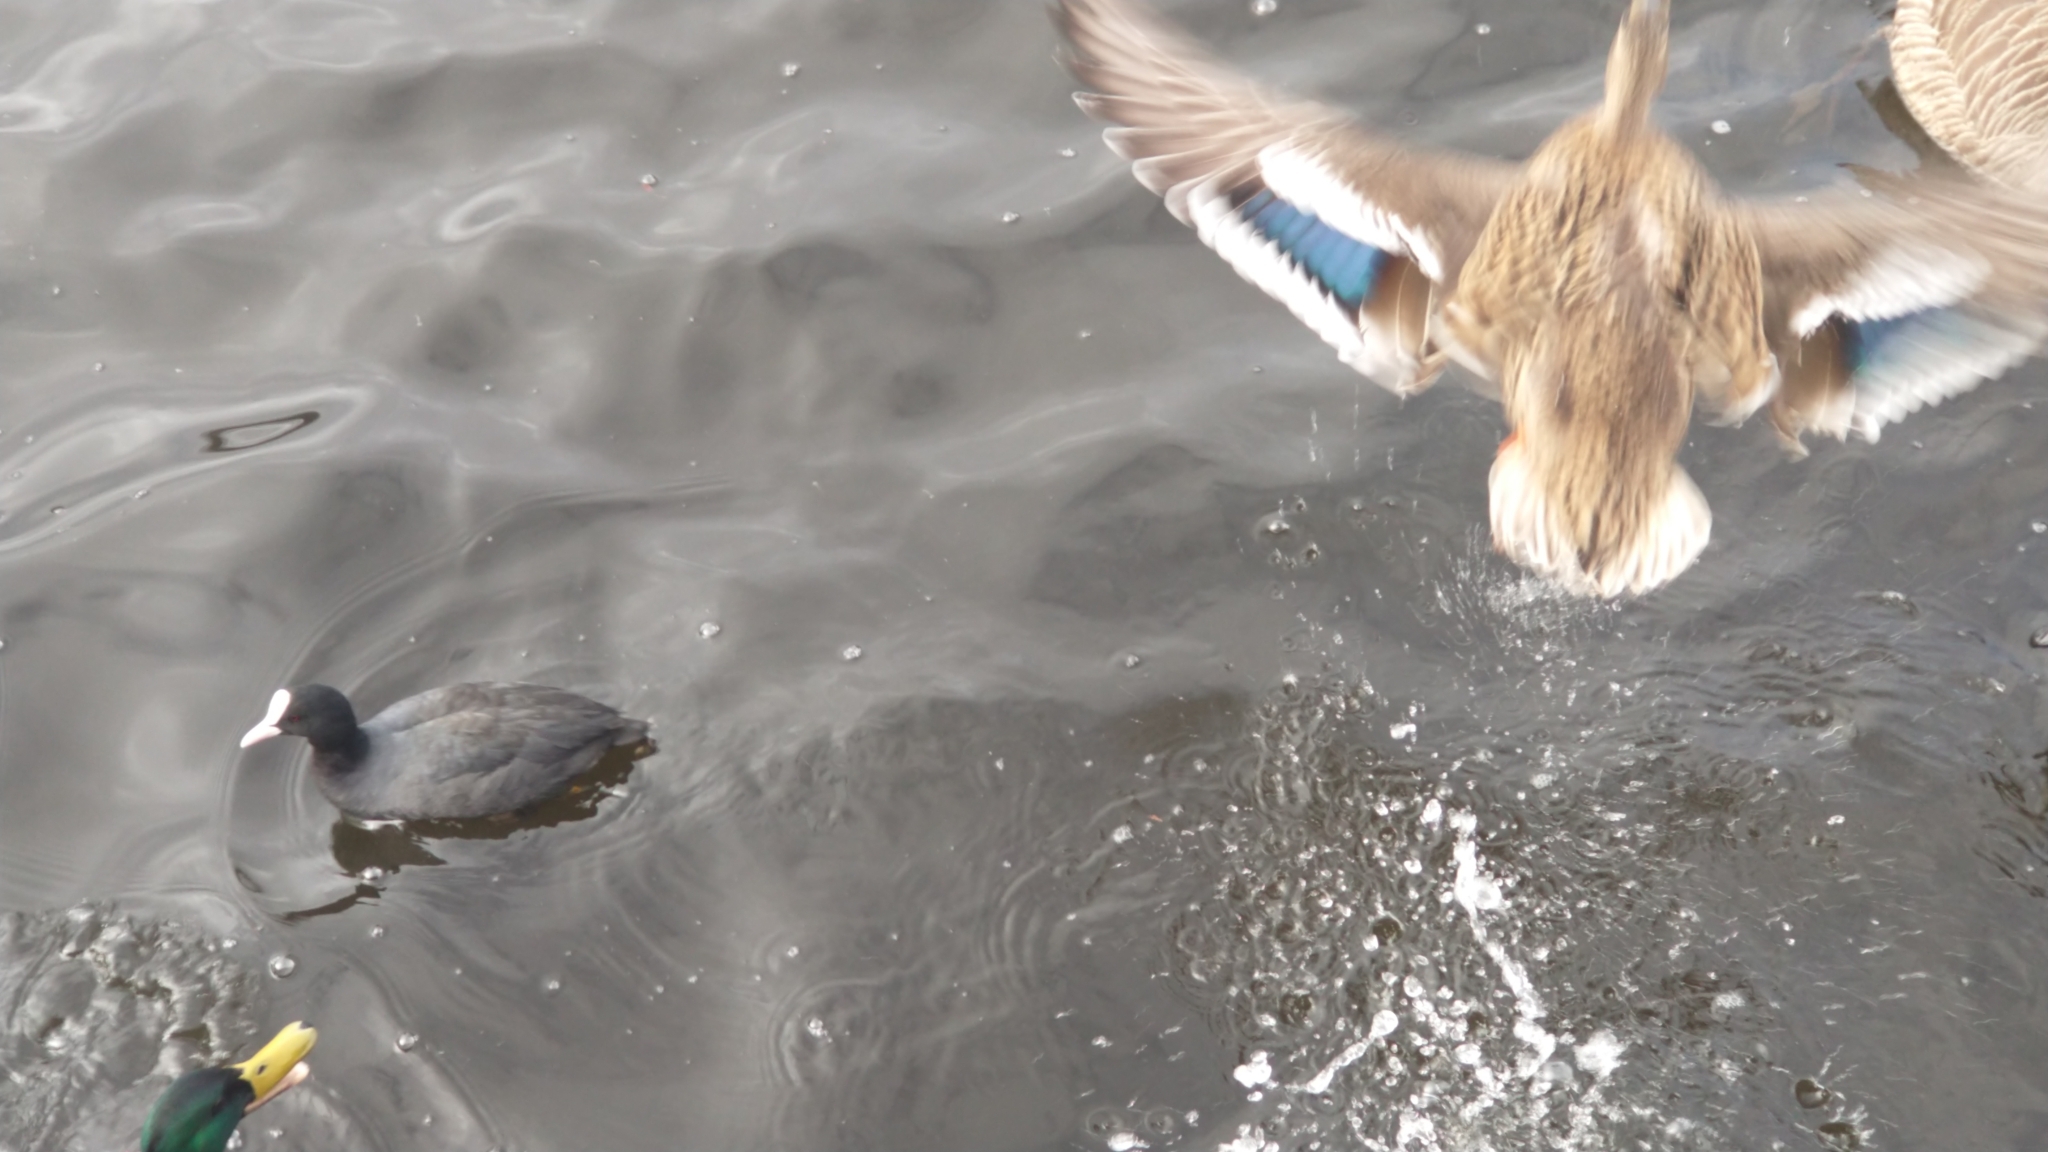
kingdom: Animalia
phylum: Chordata
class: Aves
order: Anseriformes
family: Anatidae
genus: Anas
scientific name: Anas platyrhynchos
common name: Mallard
